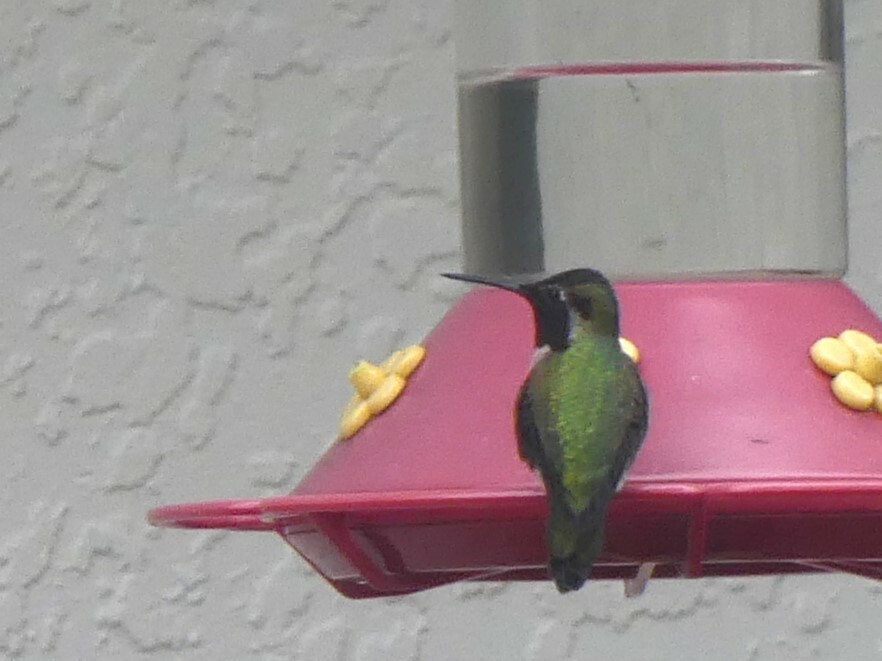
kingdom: Animalia
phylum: Chordata
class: Aves
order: Apodiformes
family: Trochilidae
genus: Calypte
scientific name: Calypte anna
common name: Anna's hummingbird
